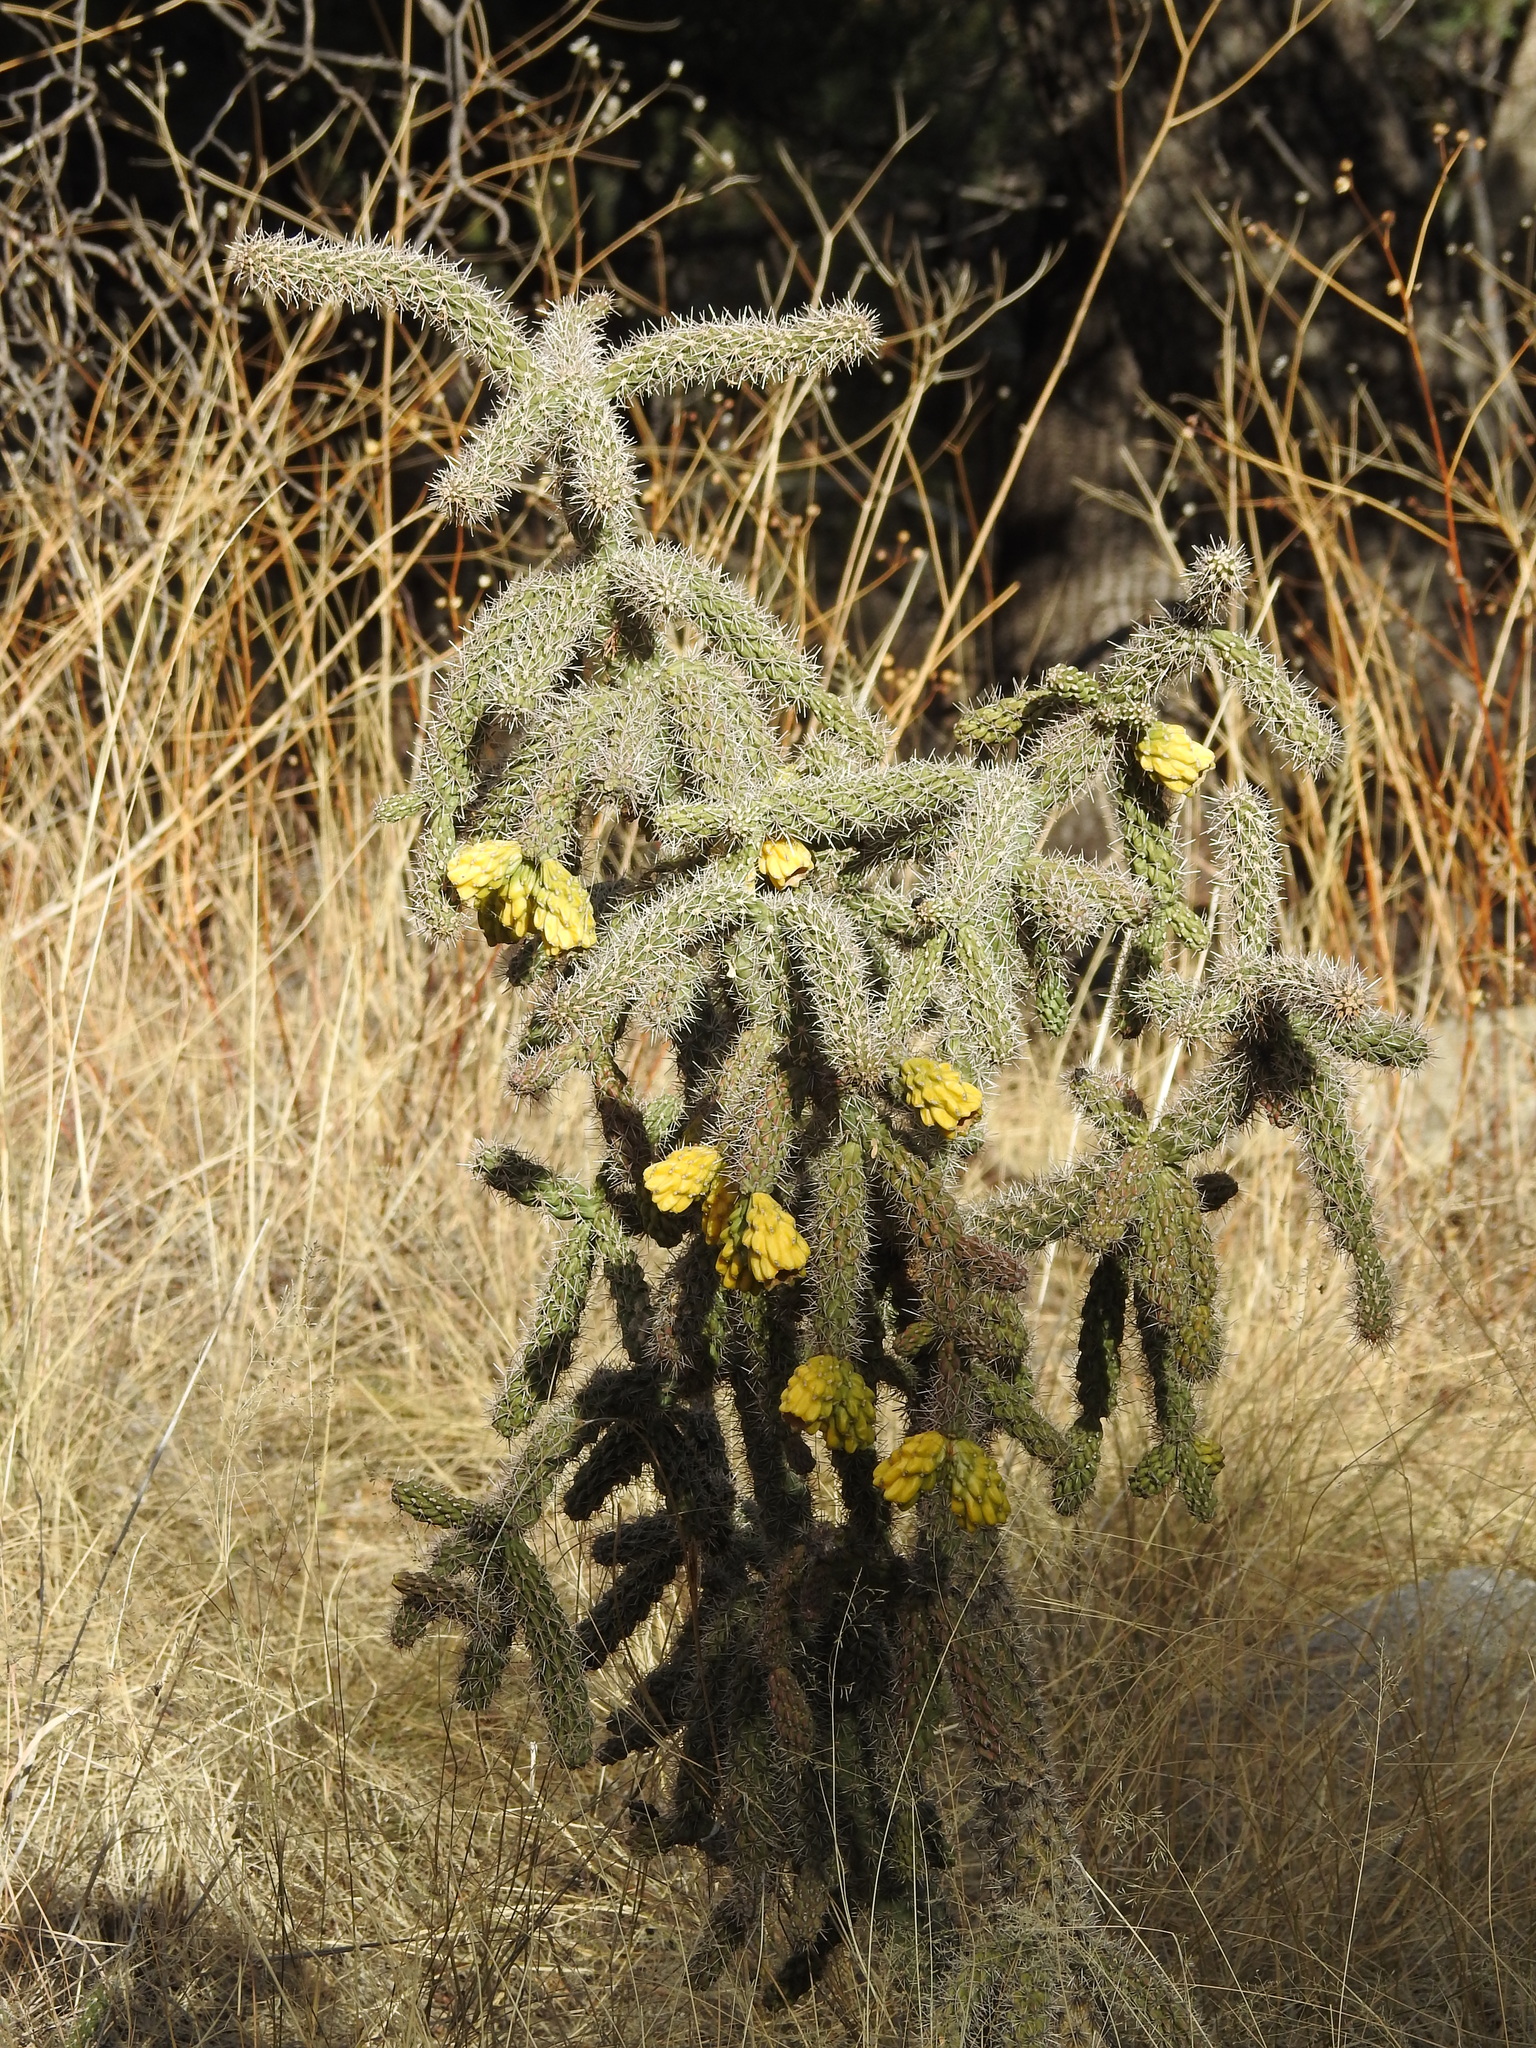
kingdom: Plantae
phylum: Tracheophyta
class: Magnoliopsida
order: Caryophyllales
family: Cactaceae
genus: Cylindropuntia
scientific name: Cylindropuntia imbricata
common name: Candelabrum cactus
